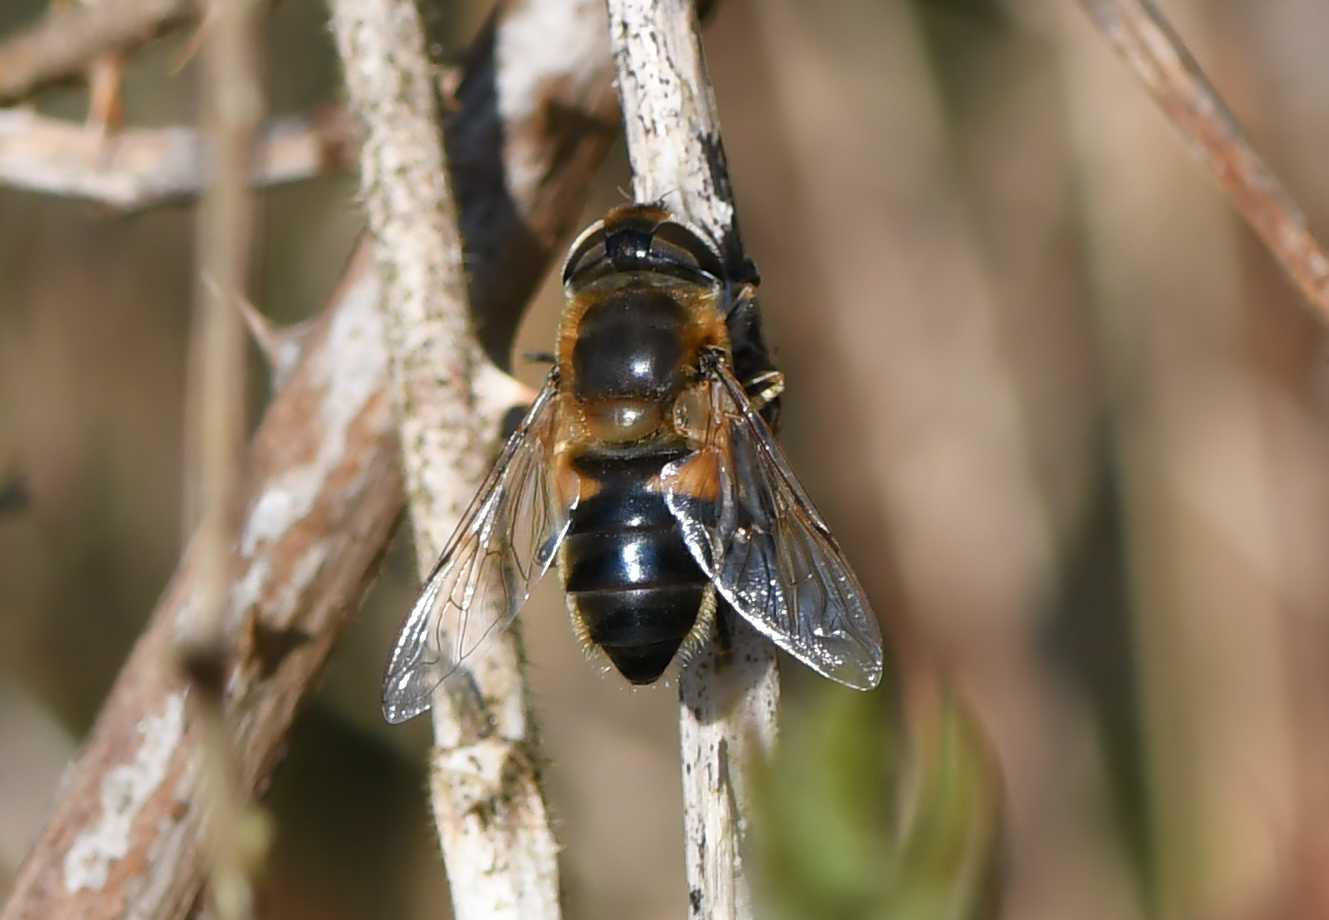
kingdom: Animalia
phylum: Arthropoda
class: Insecta
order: Diptera
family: Syrphidae
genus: Eristalis
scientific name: Eristalis pertinax
